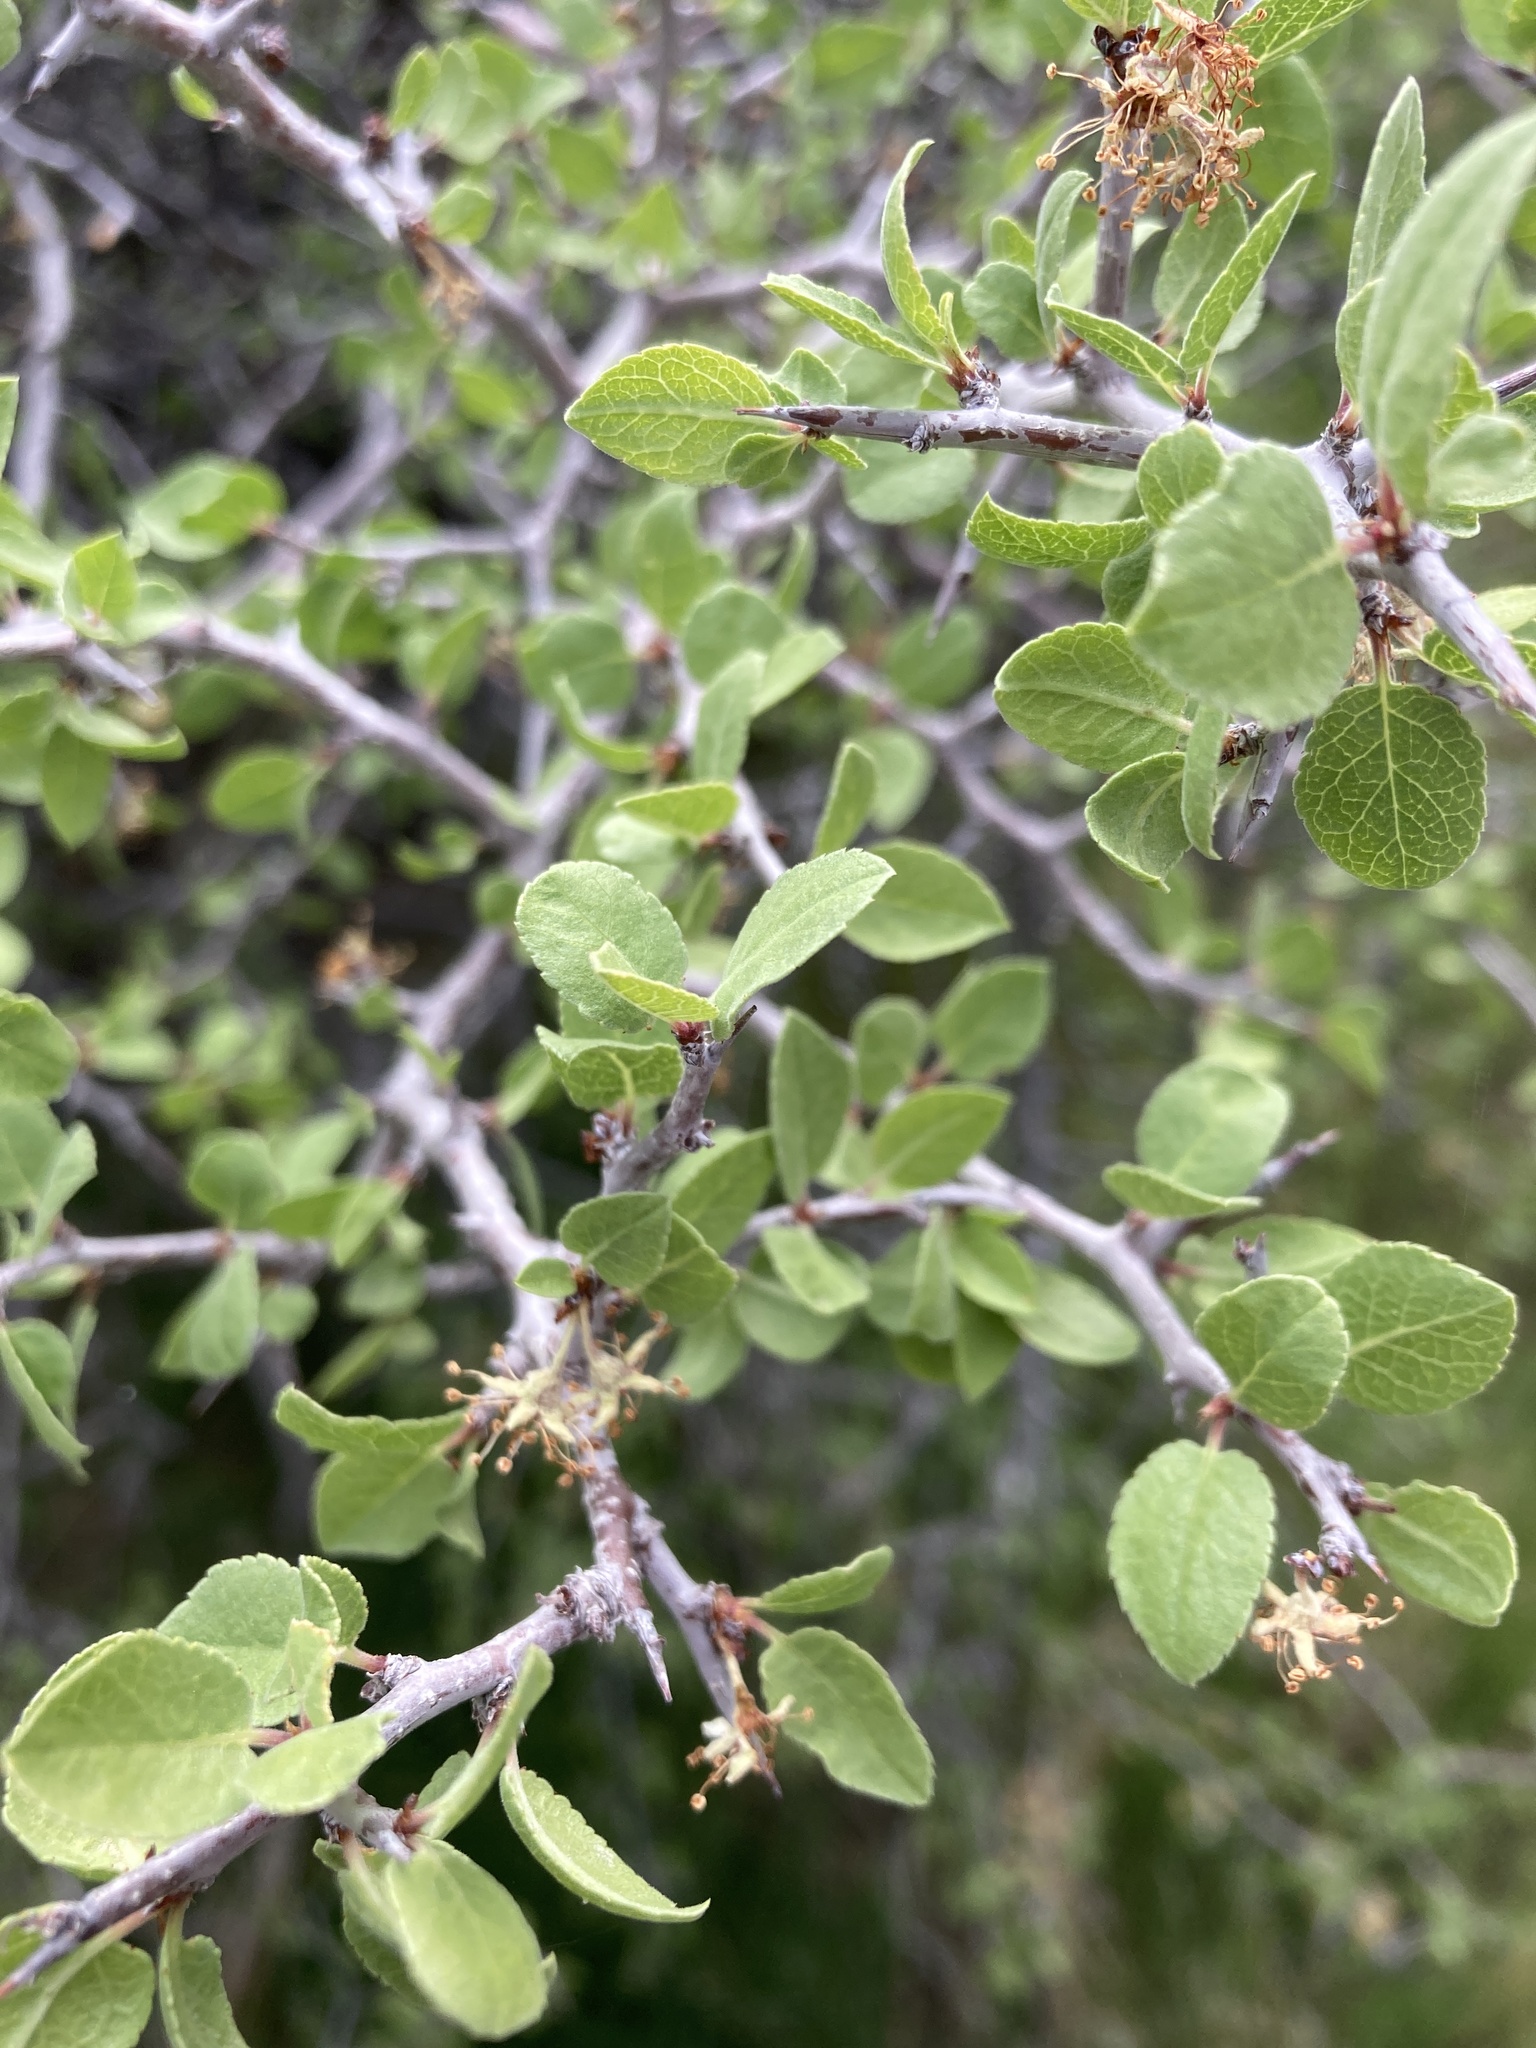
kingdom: Plantae
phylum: Tracheophyta
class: Magnoliopsida
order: Rosales
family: Rosaceae
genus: Prunus
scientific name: Prunus fremontii
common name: Desert apricot
